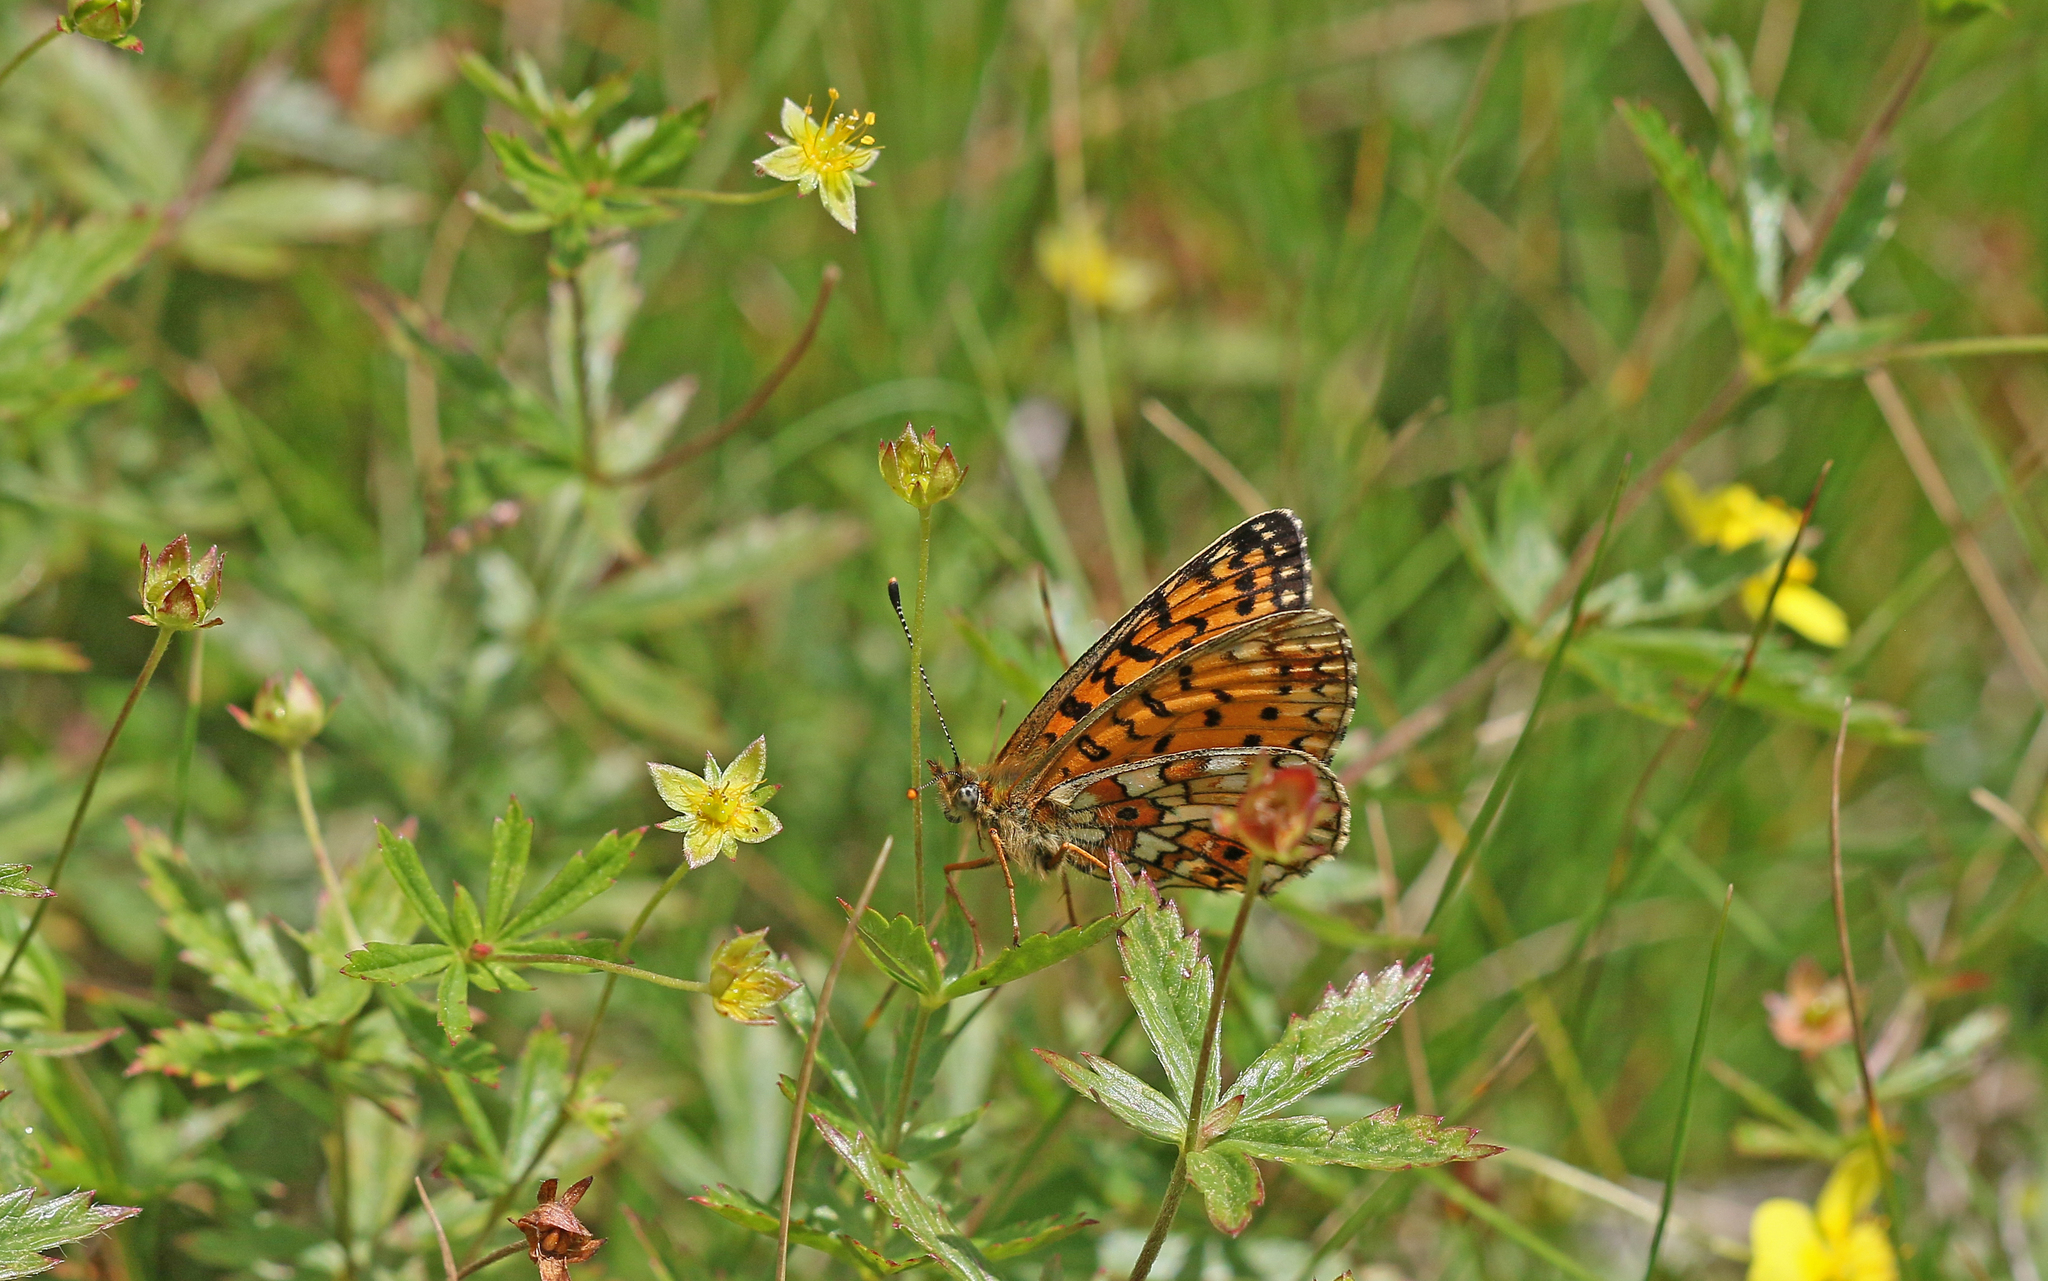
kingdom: Animalia
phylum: Arthropoda
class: Insecta
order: Lepidoptera
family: Nymphalidae
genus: Boloria
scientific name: Boloria selene
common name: Small pearl-bordered fritillary
